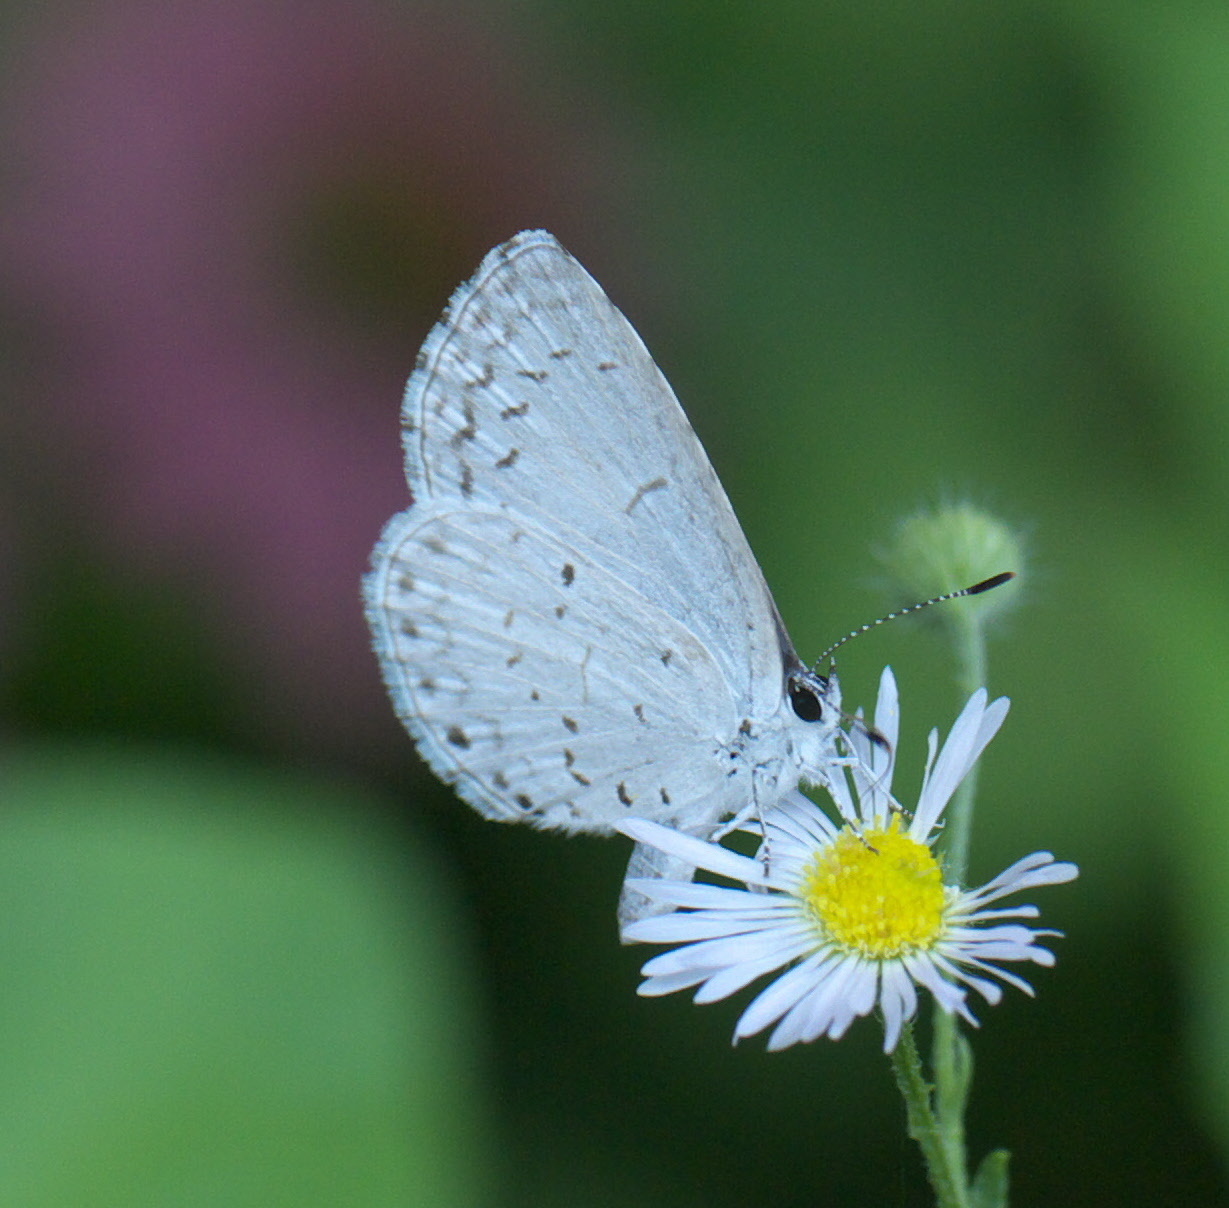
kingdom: Animalia
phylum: Arthropoda
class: Insecta
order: Lepidoptera
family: Lycaenidae
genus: Cyaniris
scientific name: Cyaniris neglecta
